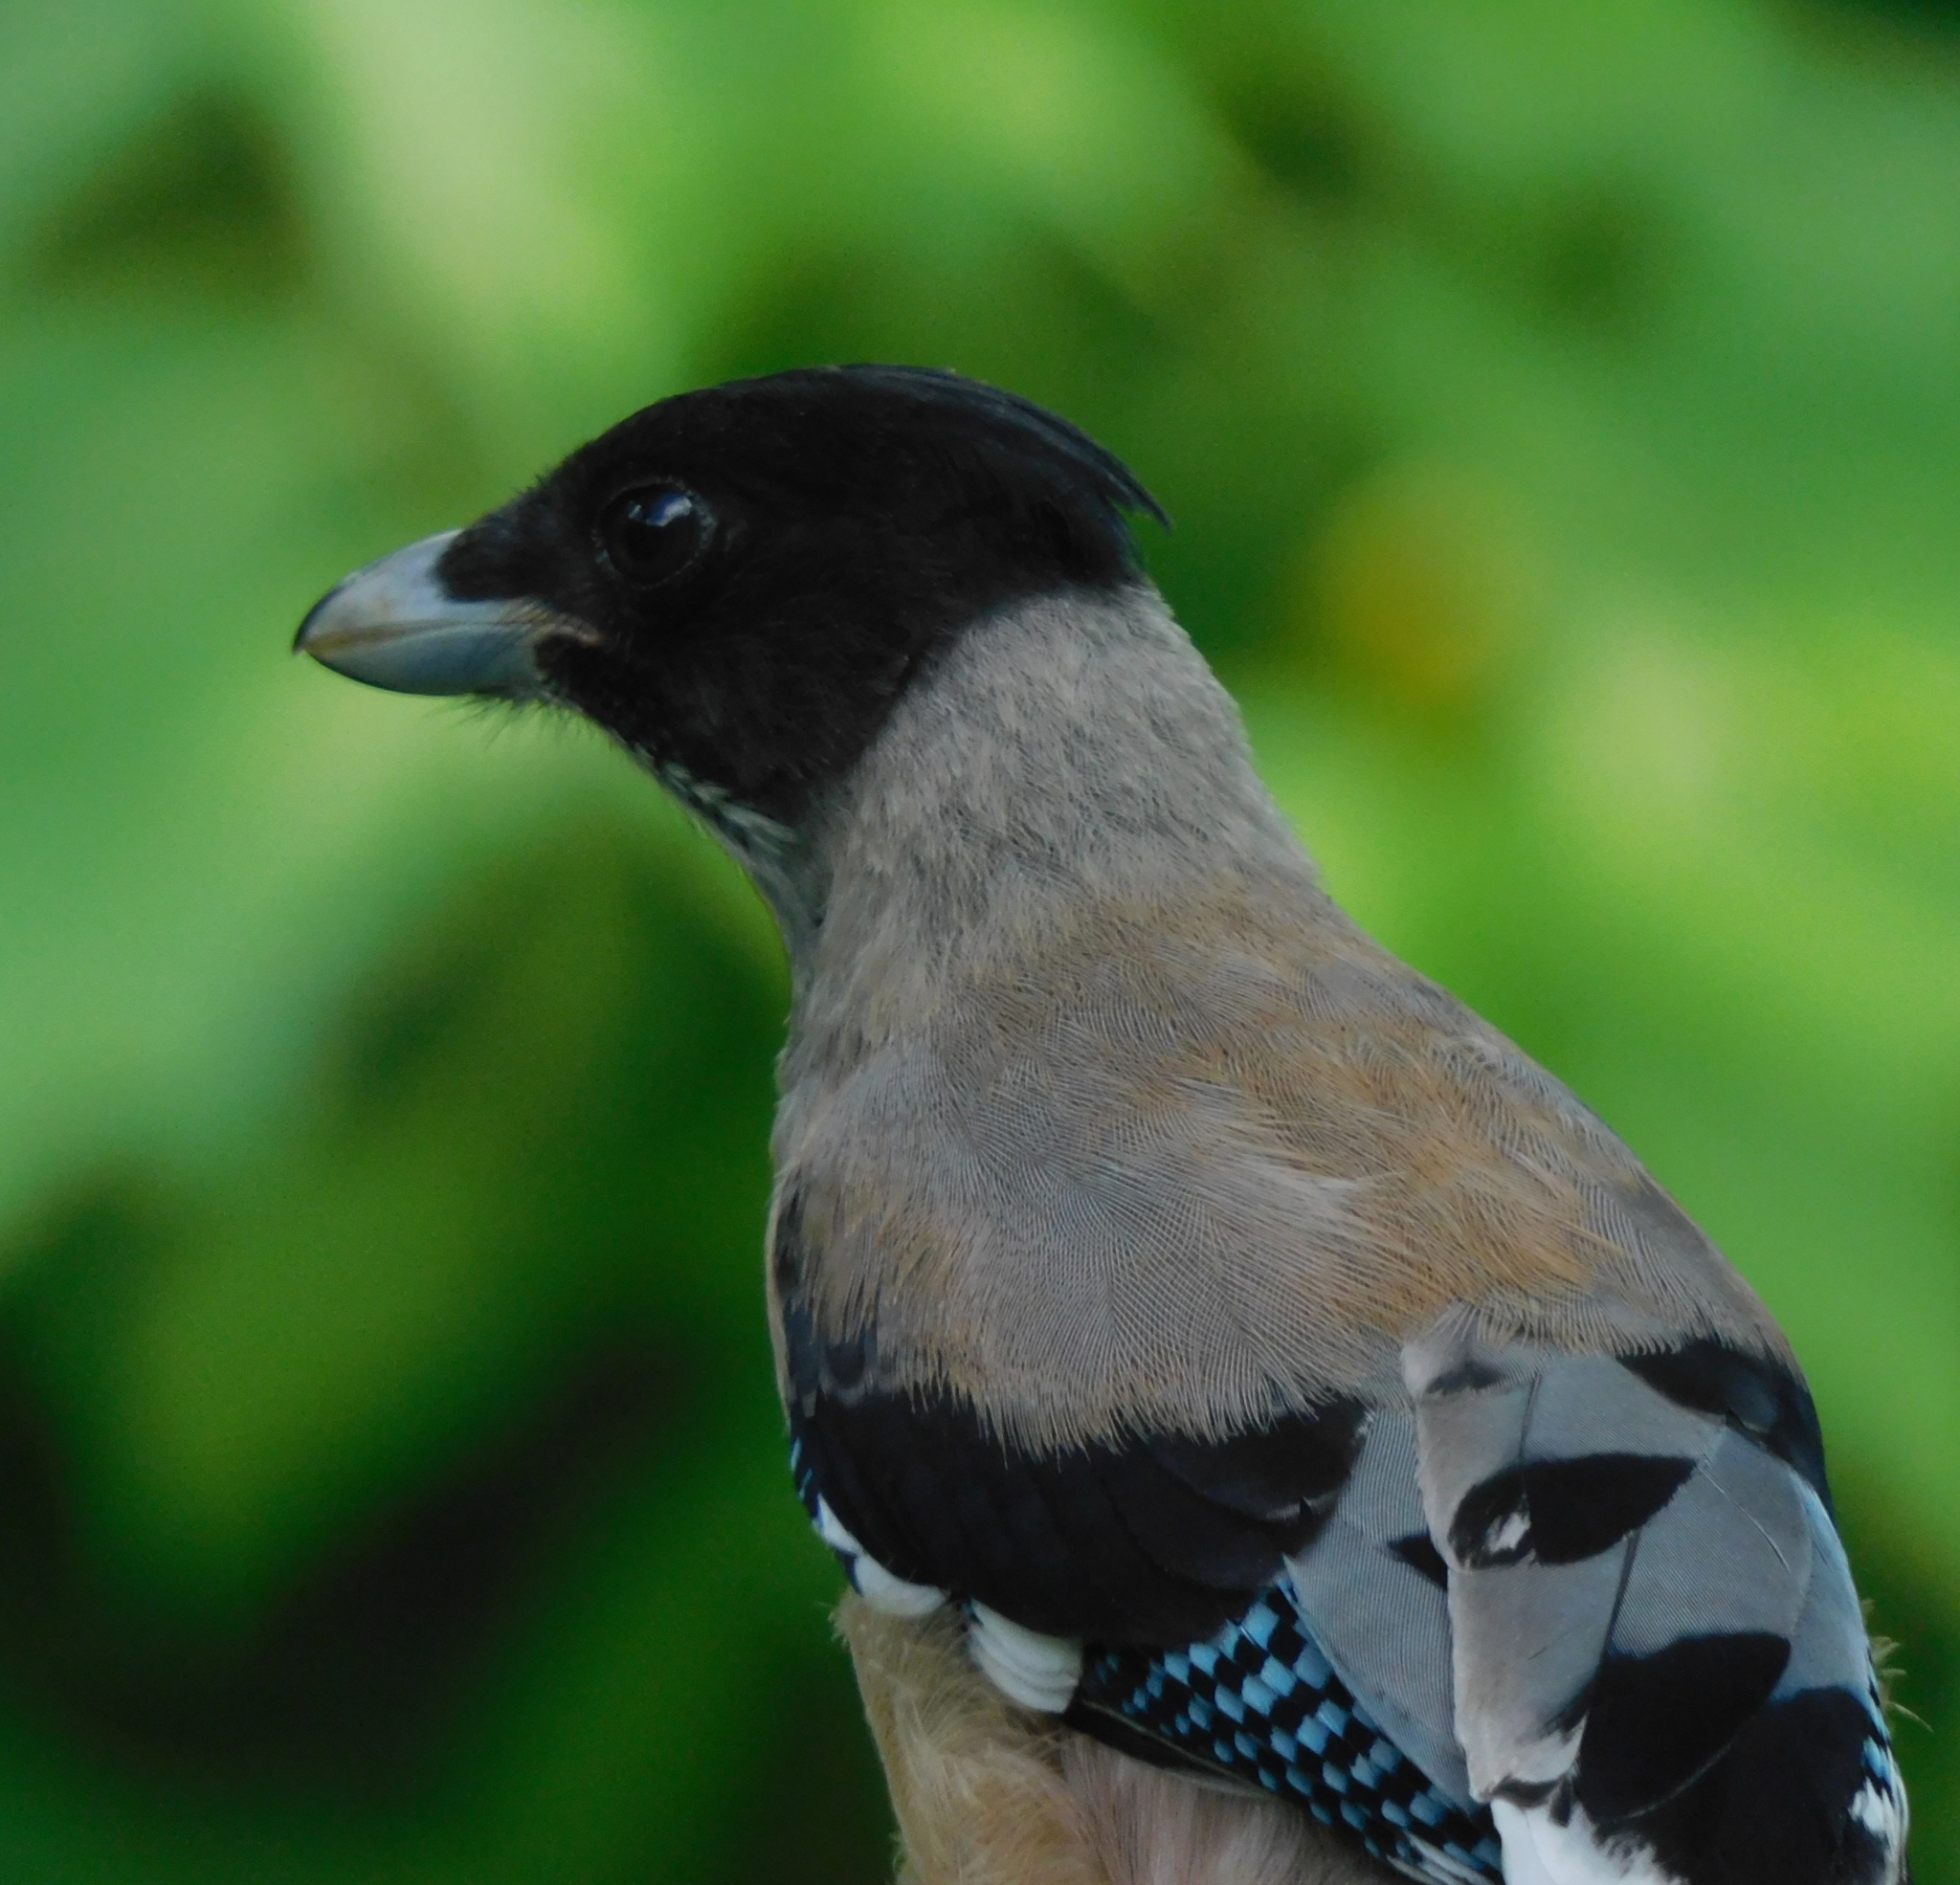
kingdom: Animalia
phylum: Chordata
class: Aves
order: Passeriformes
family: Corvidae
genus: Garrulus
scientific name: Garrulus lanceolatus
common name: Black-headed jay
